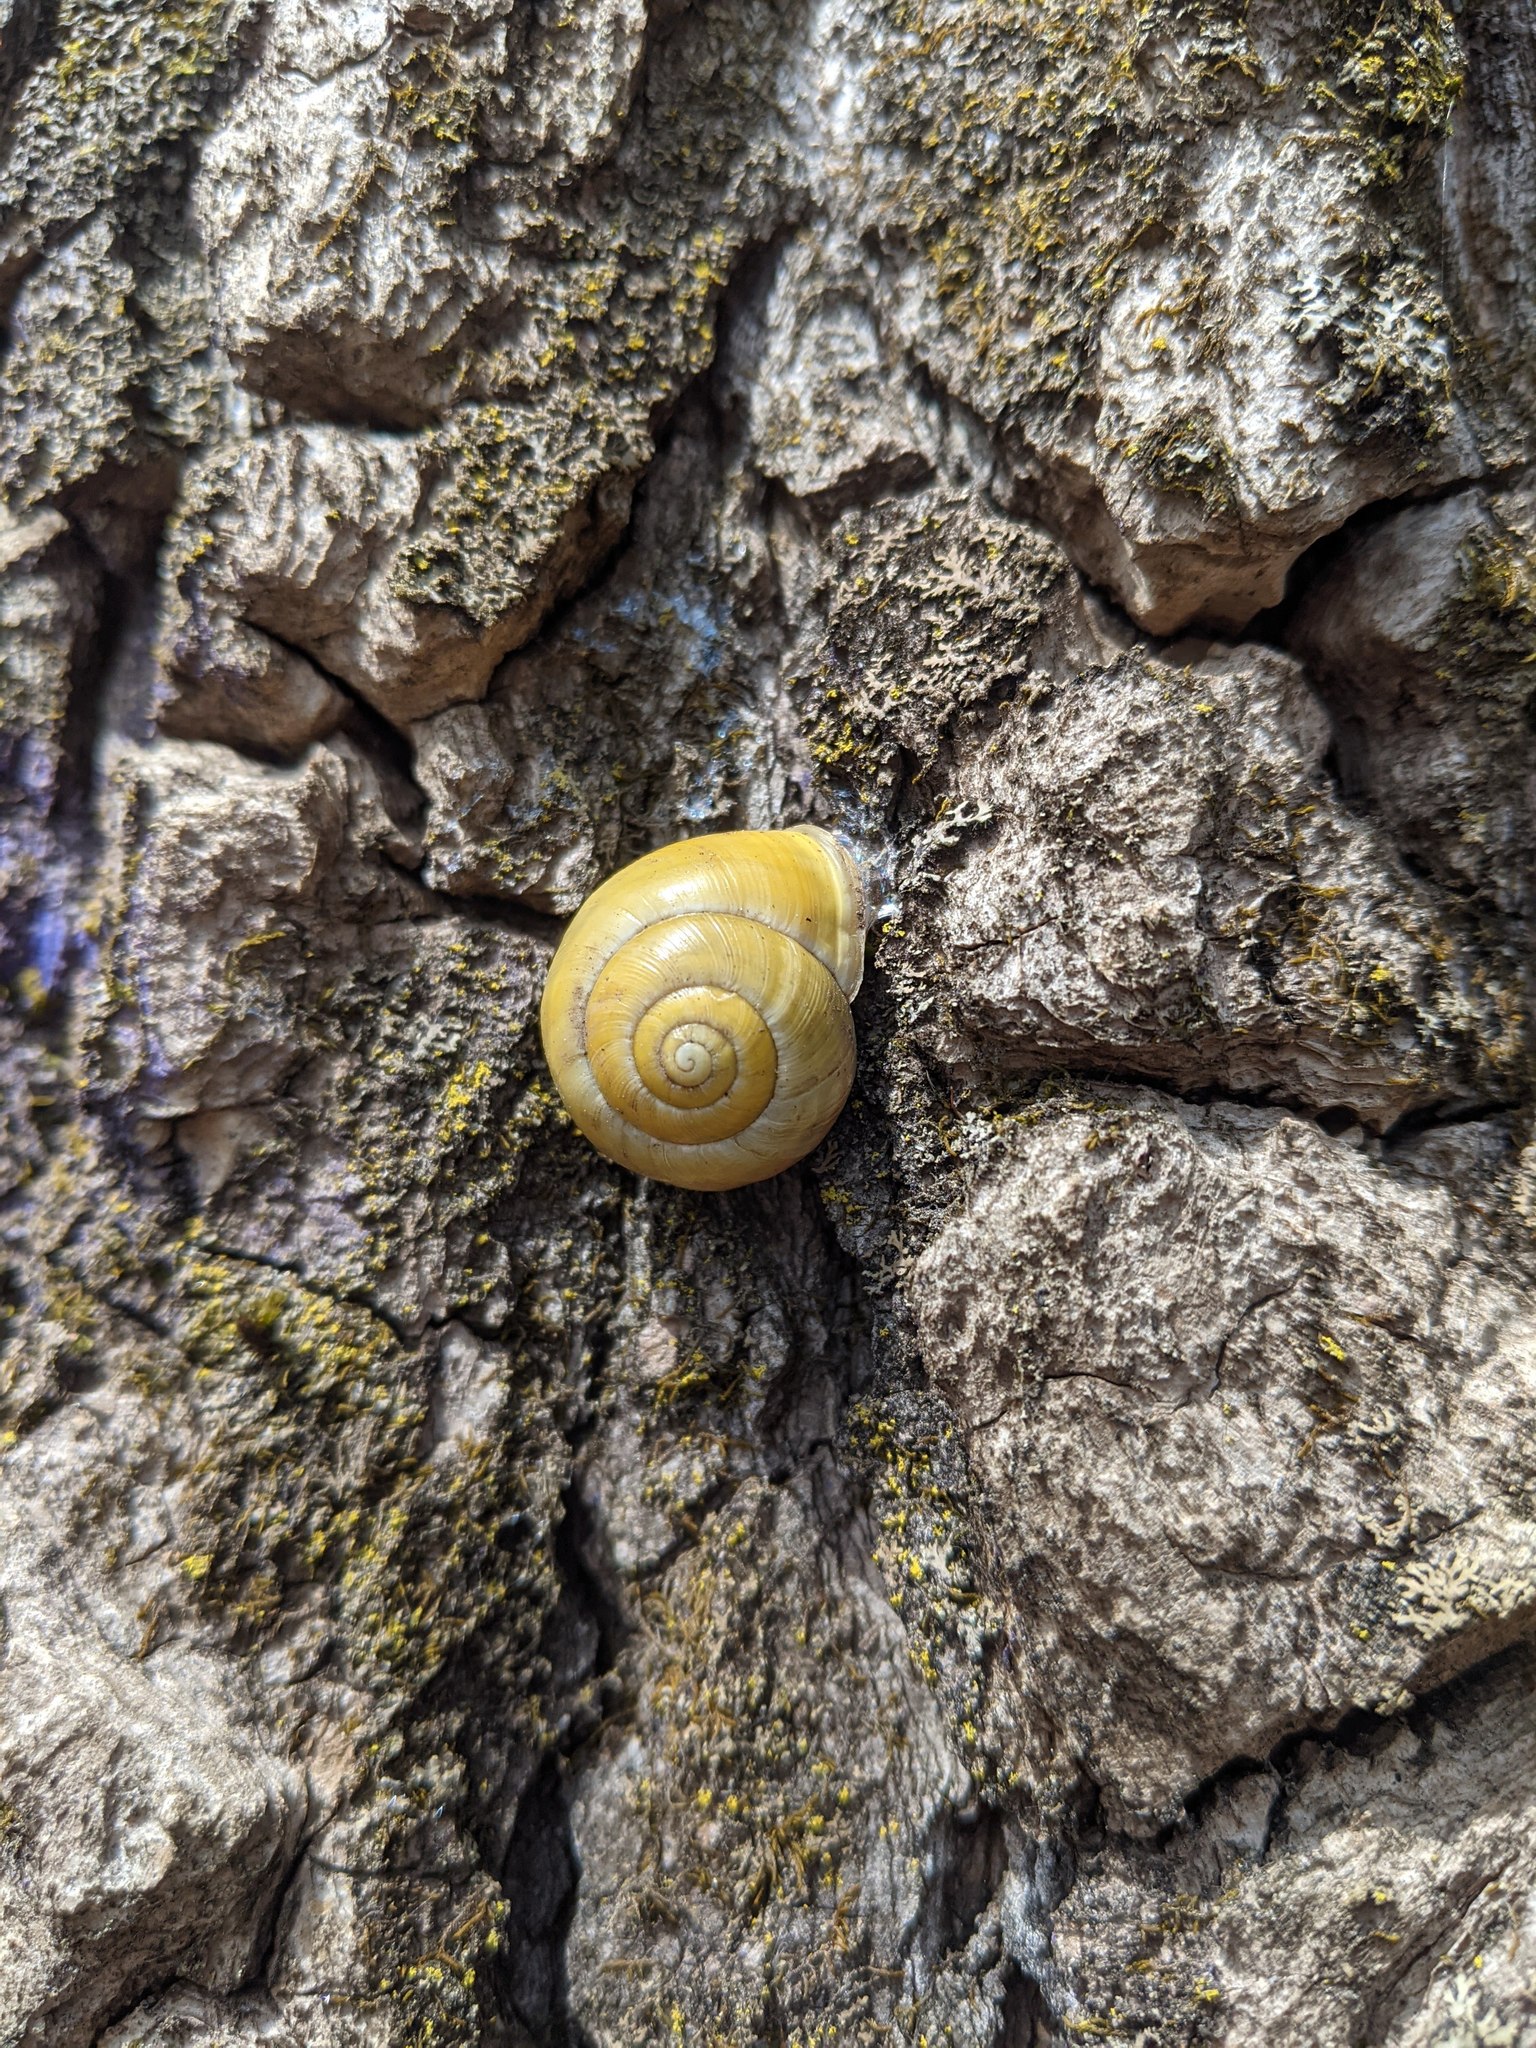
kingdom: Animalia
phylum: Mollusca
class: Gastropoda
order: Stylommatophora
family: Helicidae
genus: Cepaea
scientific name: Cepaea hortensis
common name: White-lip gardensnail
